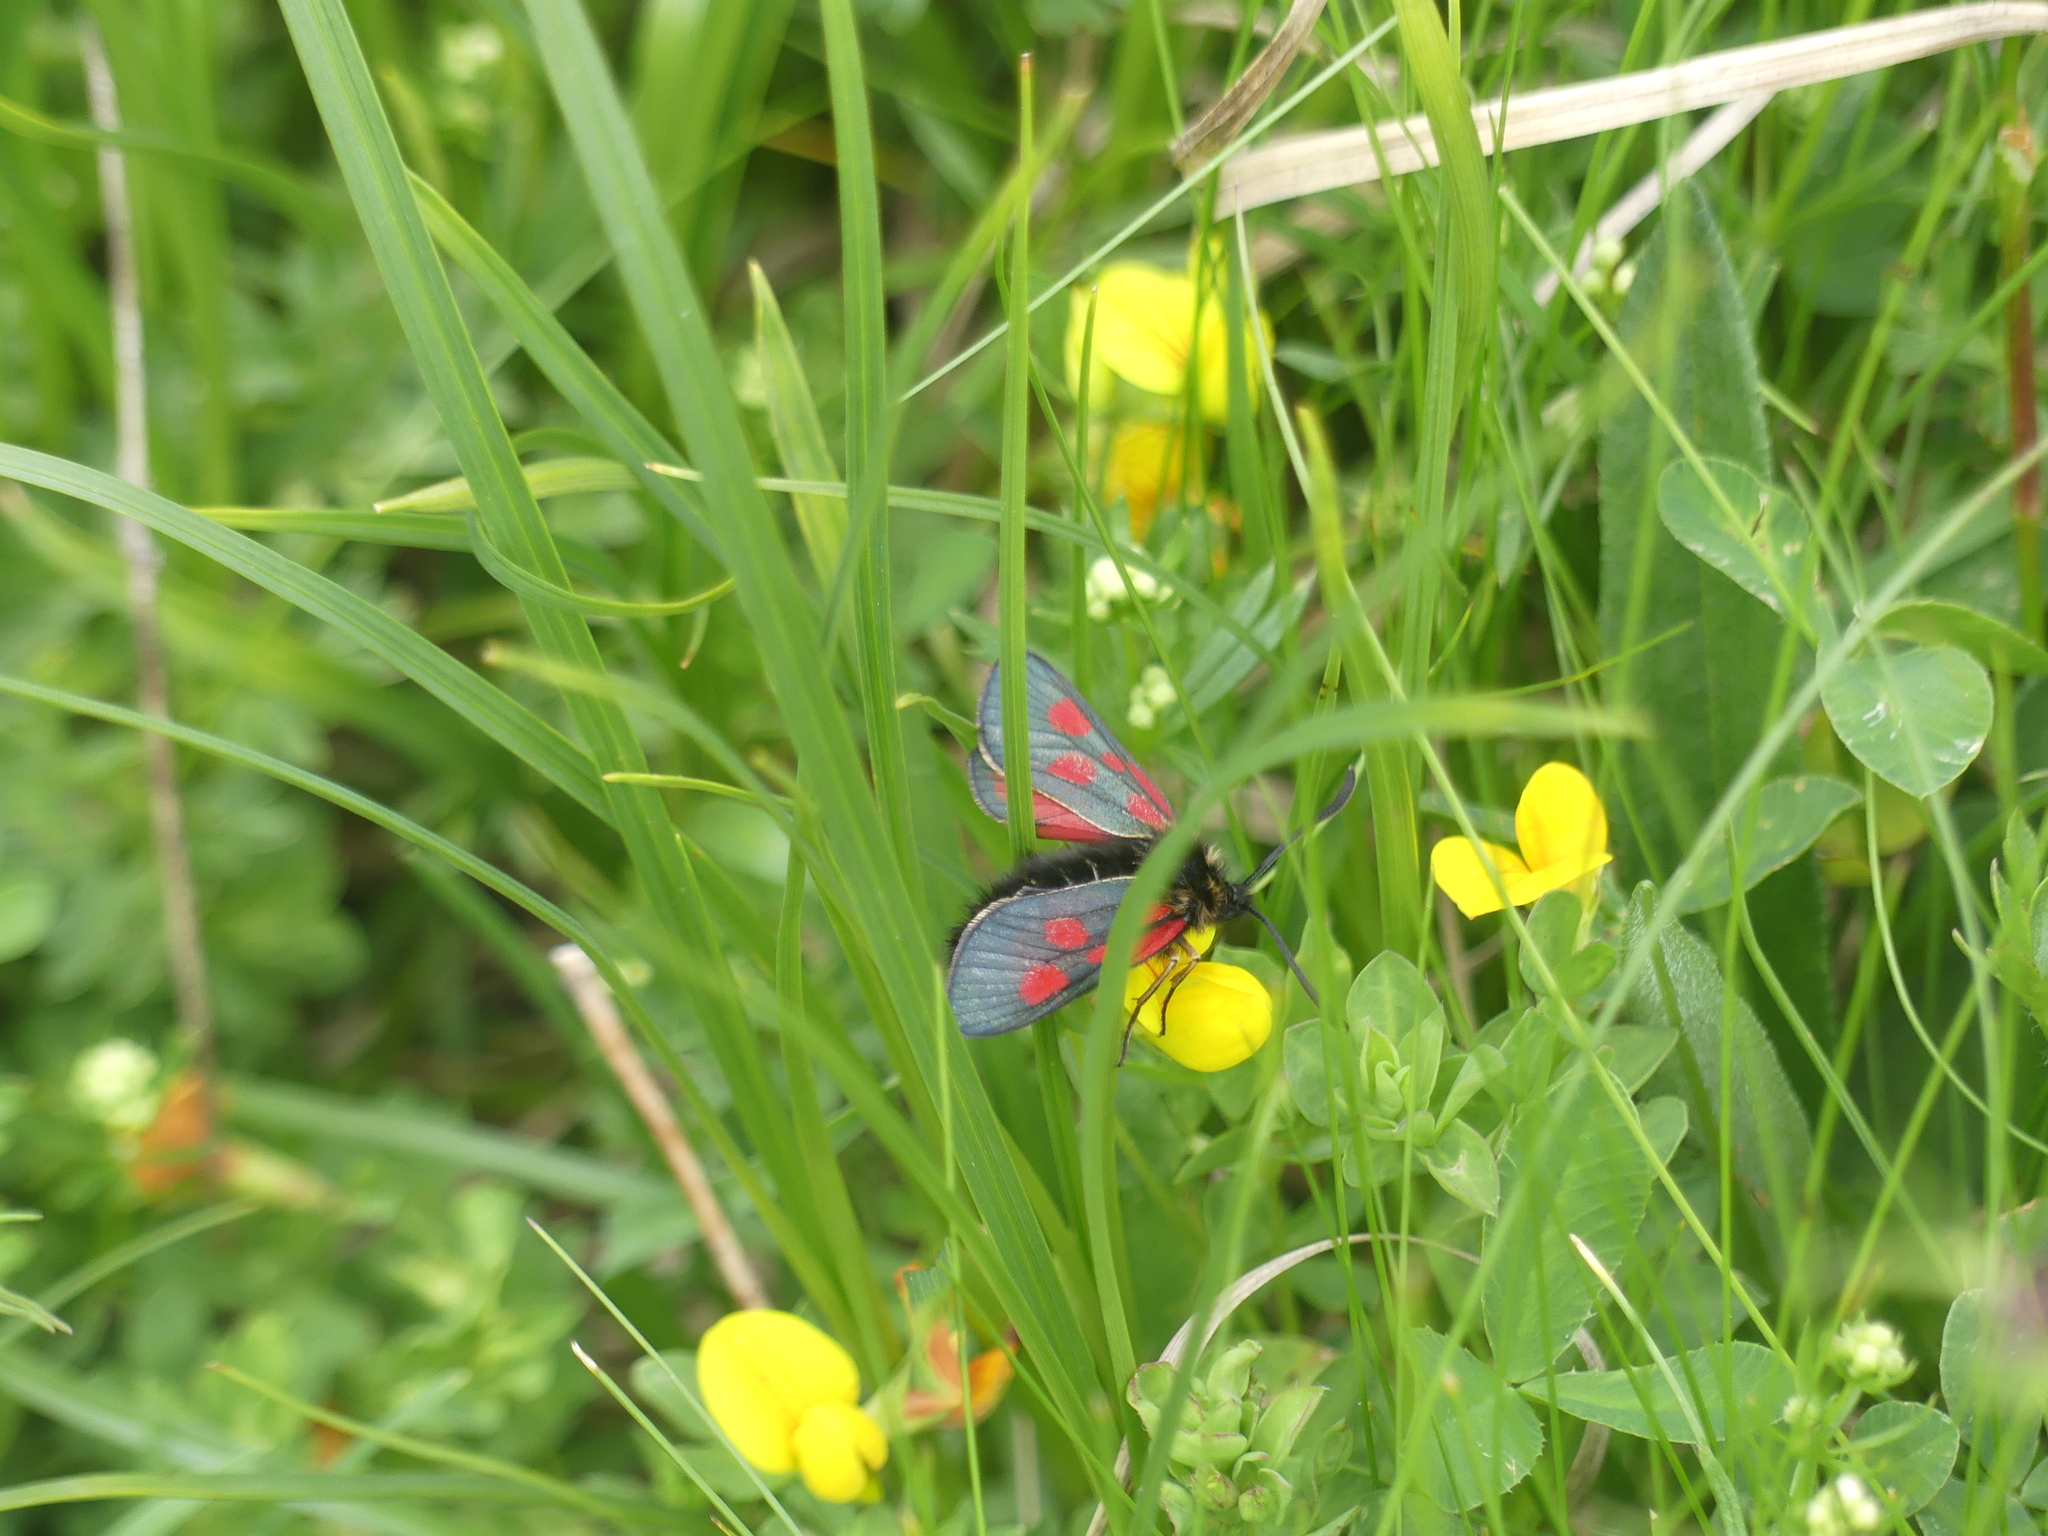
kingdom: Animalia
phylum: Arthropoda
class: Insecta
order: Lepidoptera
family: Zygaenidae
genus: Zygaena
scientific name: Zygaena exulans
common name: Scotch burnet
